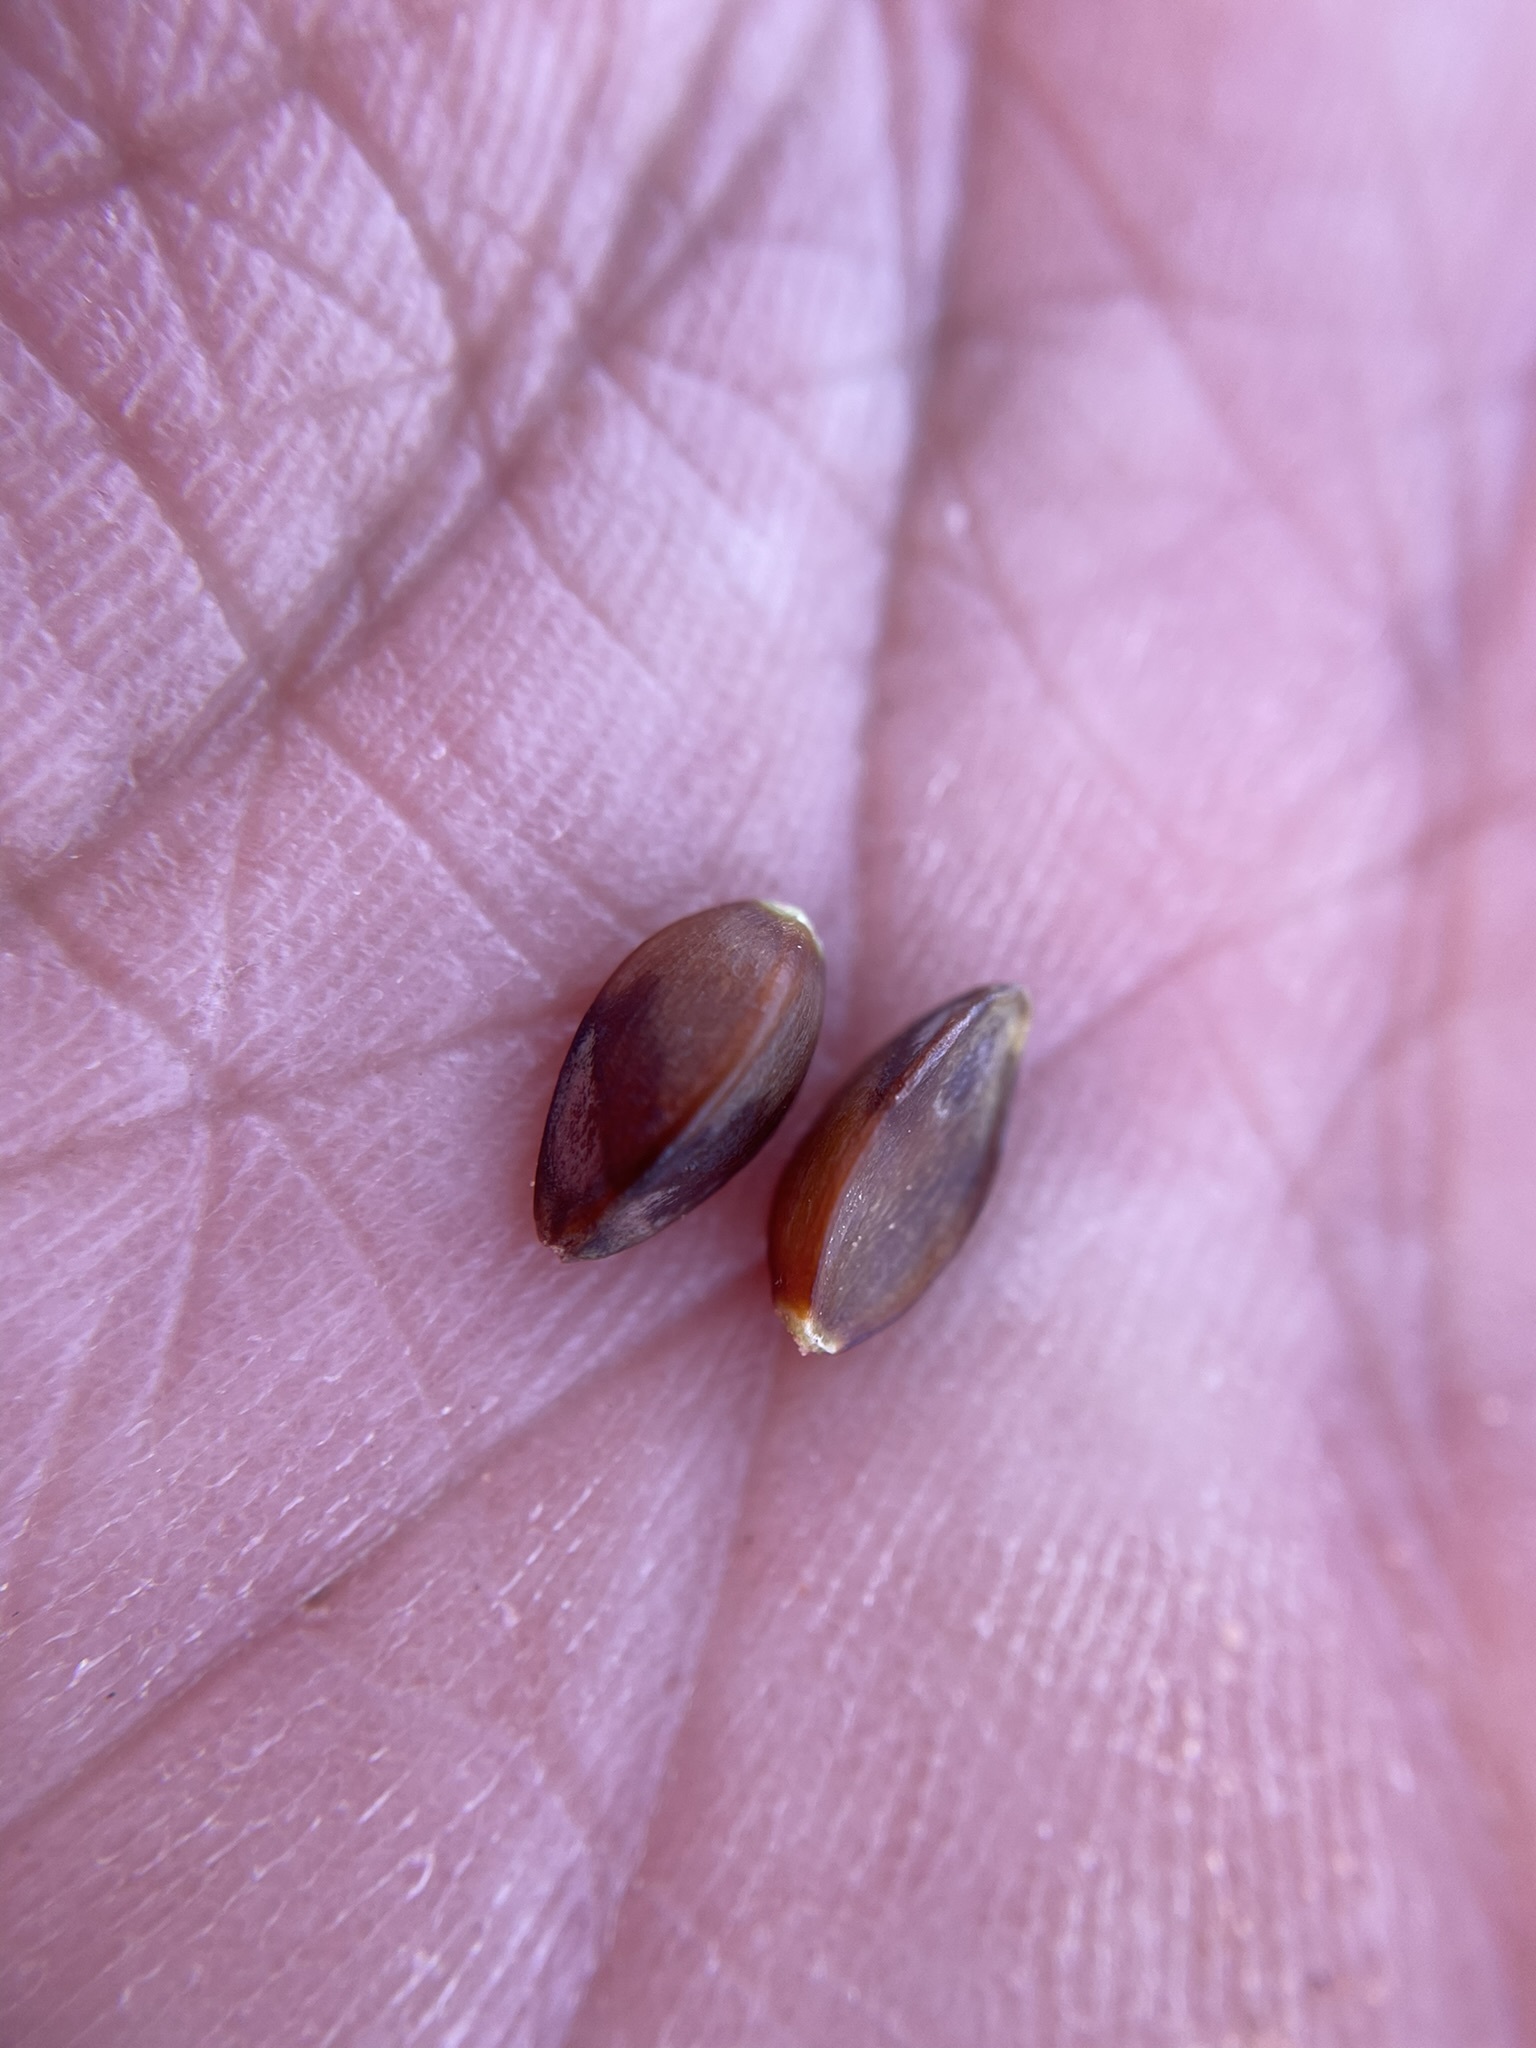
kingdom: Plantae
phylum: Tracheophyta
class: Gnetopsida
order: Ephedrales
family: Ephedraceae
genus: Ephedra
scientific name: Ephedra cutleri
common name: Cutler morning-tea
